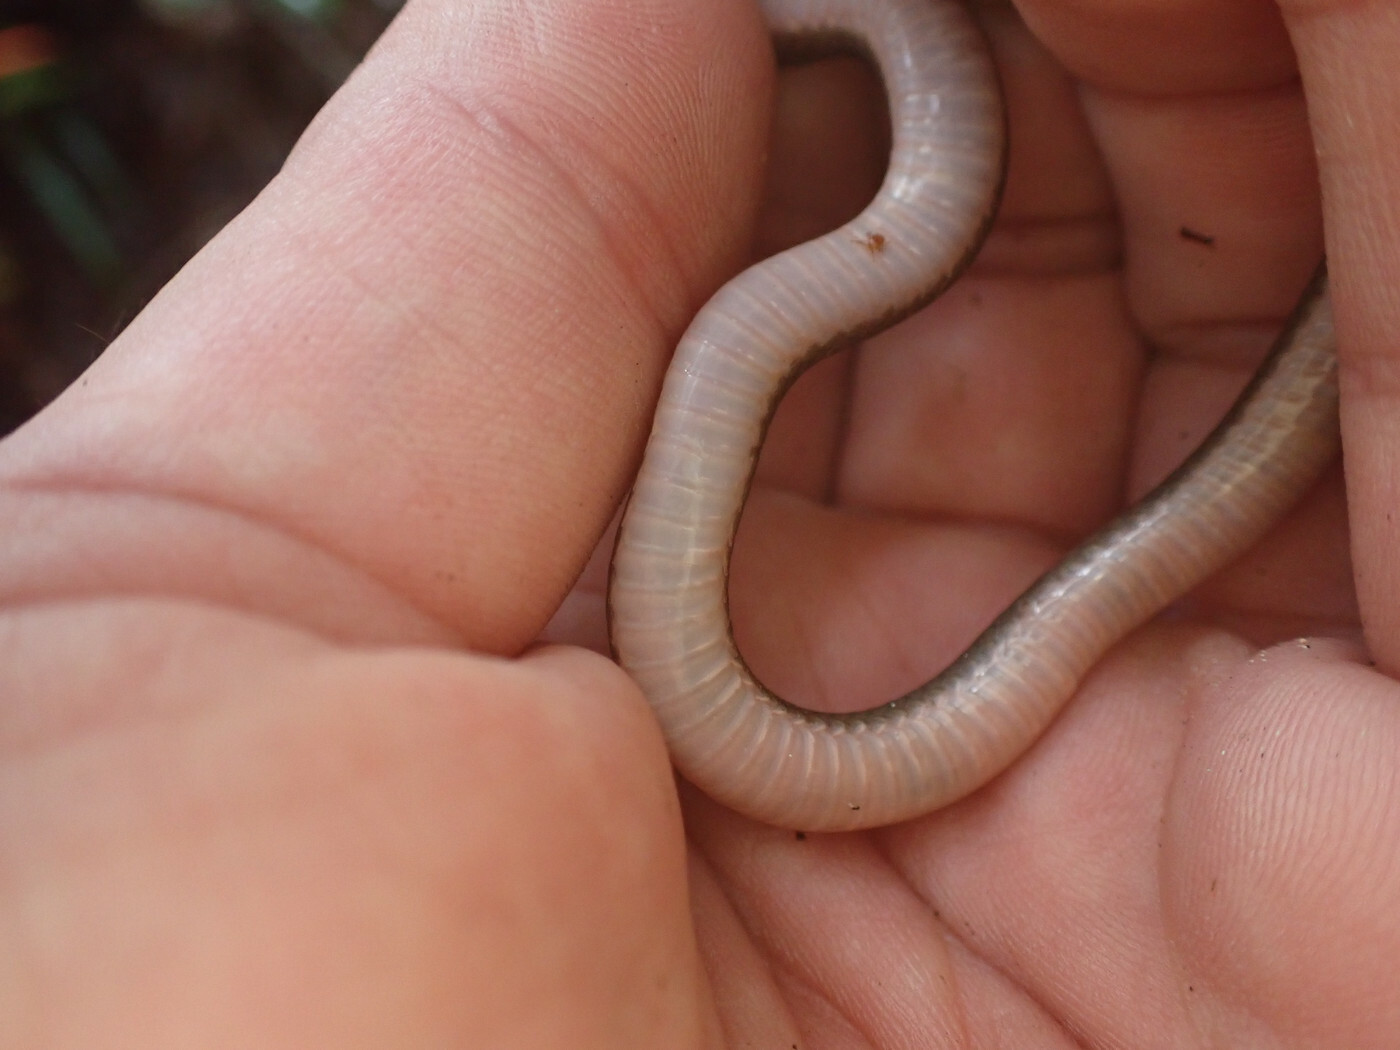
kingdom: Animalia
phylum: Chordata
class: Squamata
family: Colubridae
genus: Carphophis
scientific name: Carphophis amoenus
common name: Eastern worm snake
